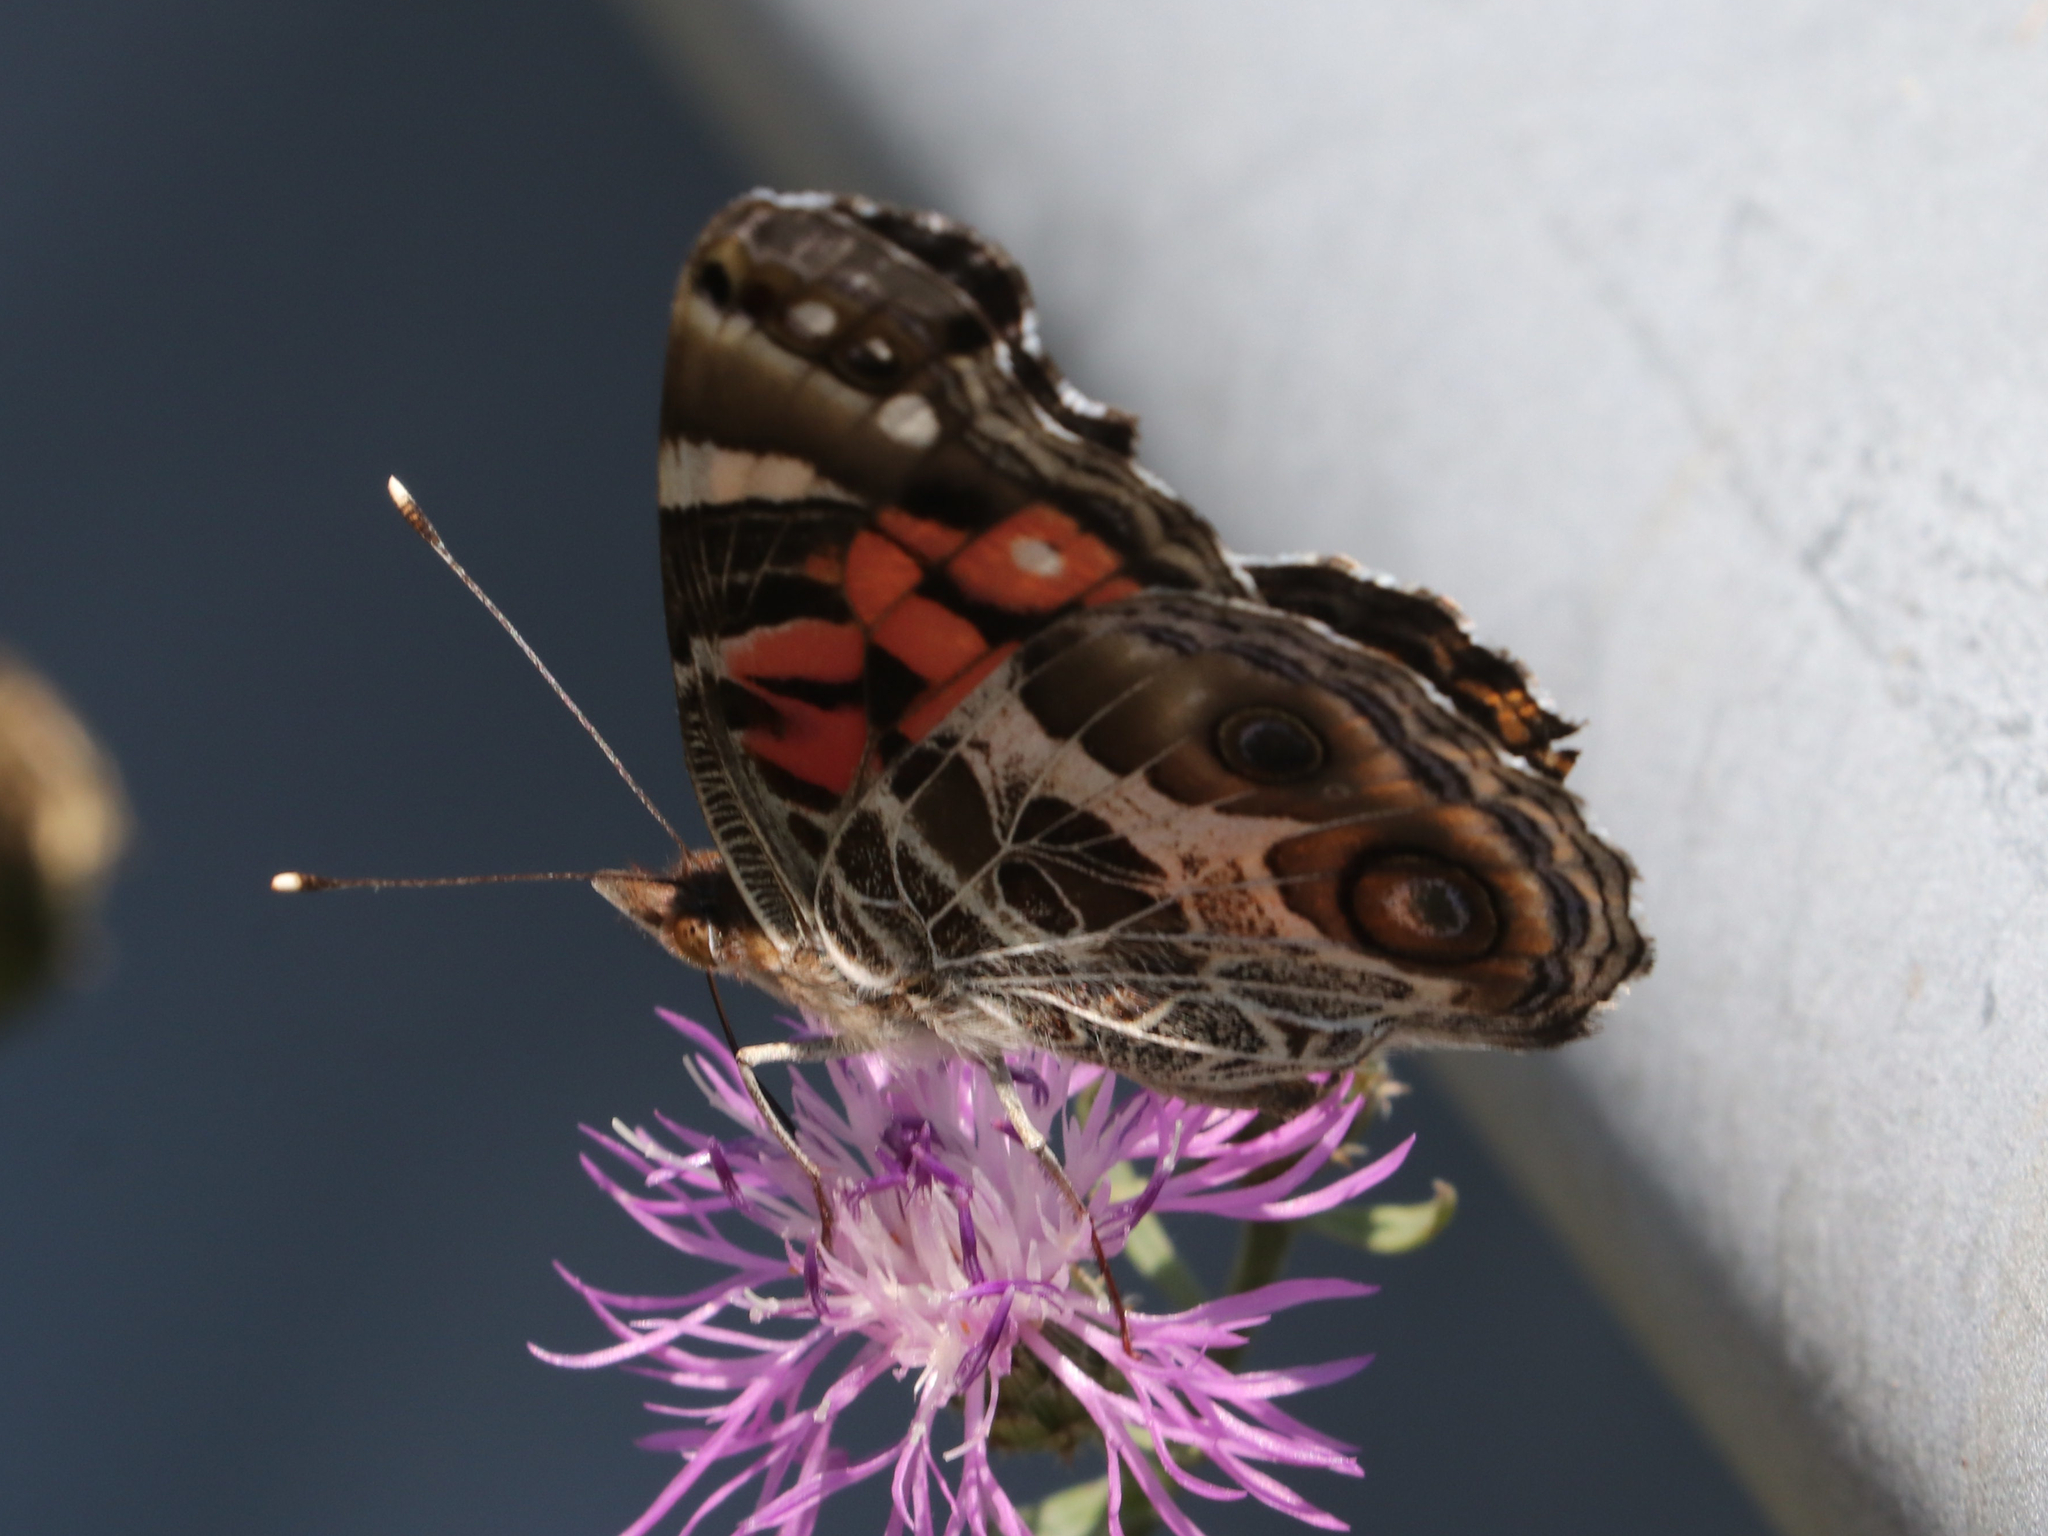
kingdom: Animalia
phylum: Arthropoda
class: Insecta
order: Lepidoptera
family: Nymphalidae
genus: Vanessa
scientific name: Vanessa virginiensis
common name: American lady
